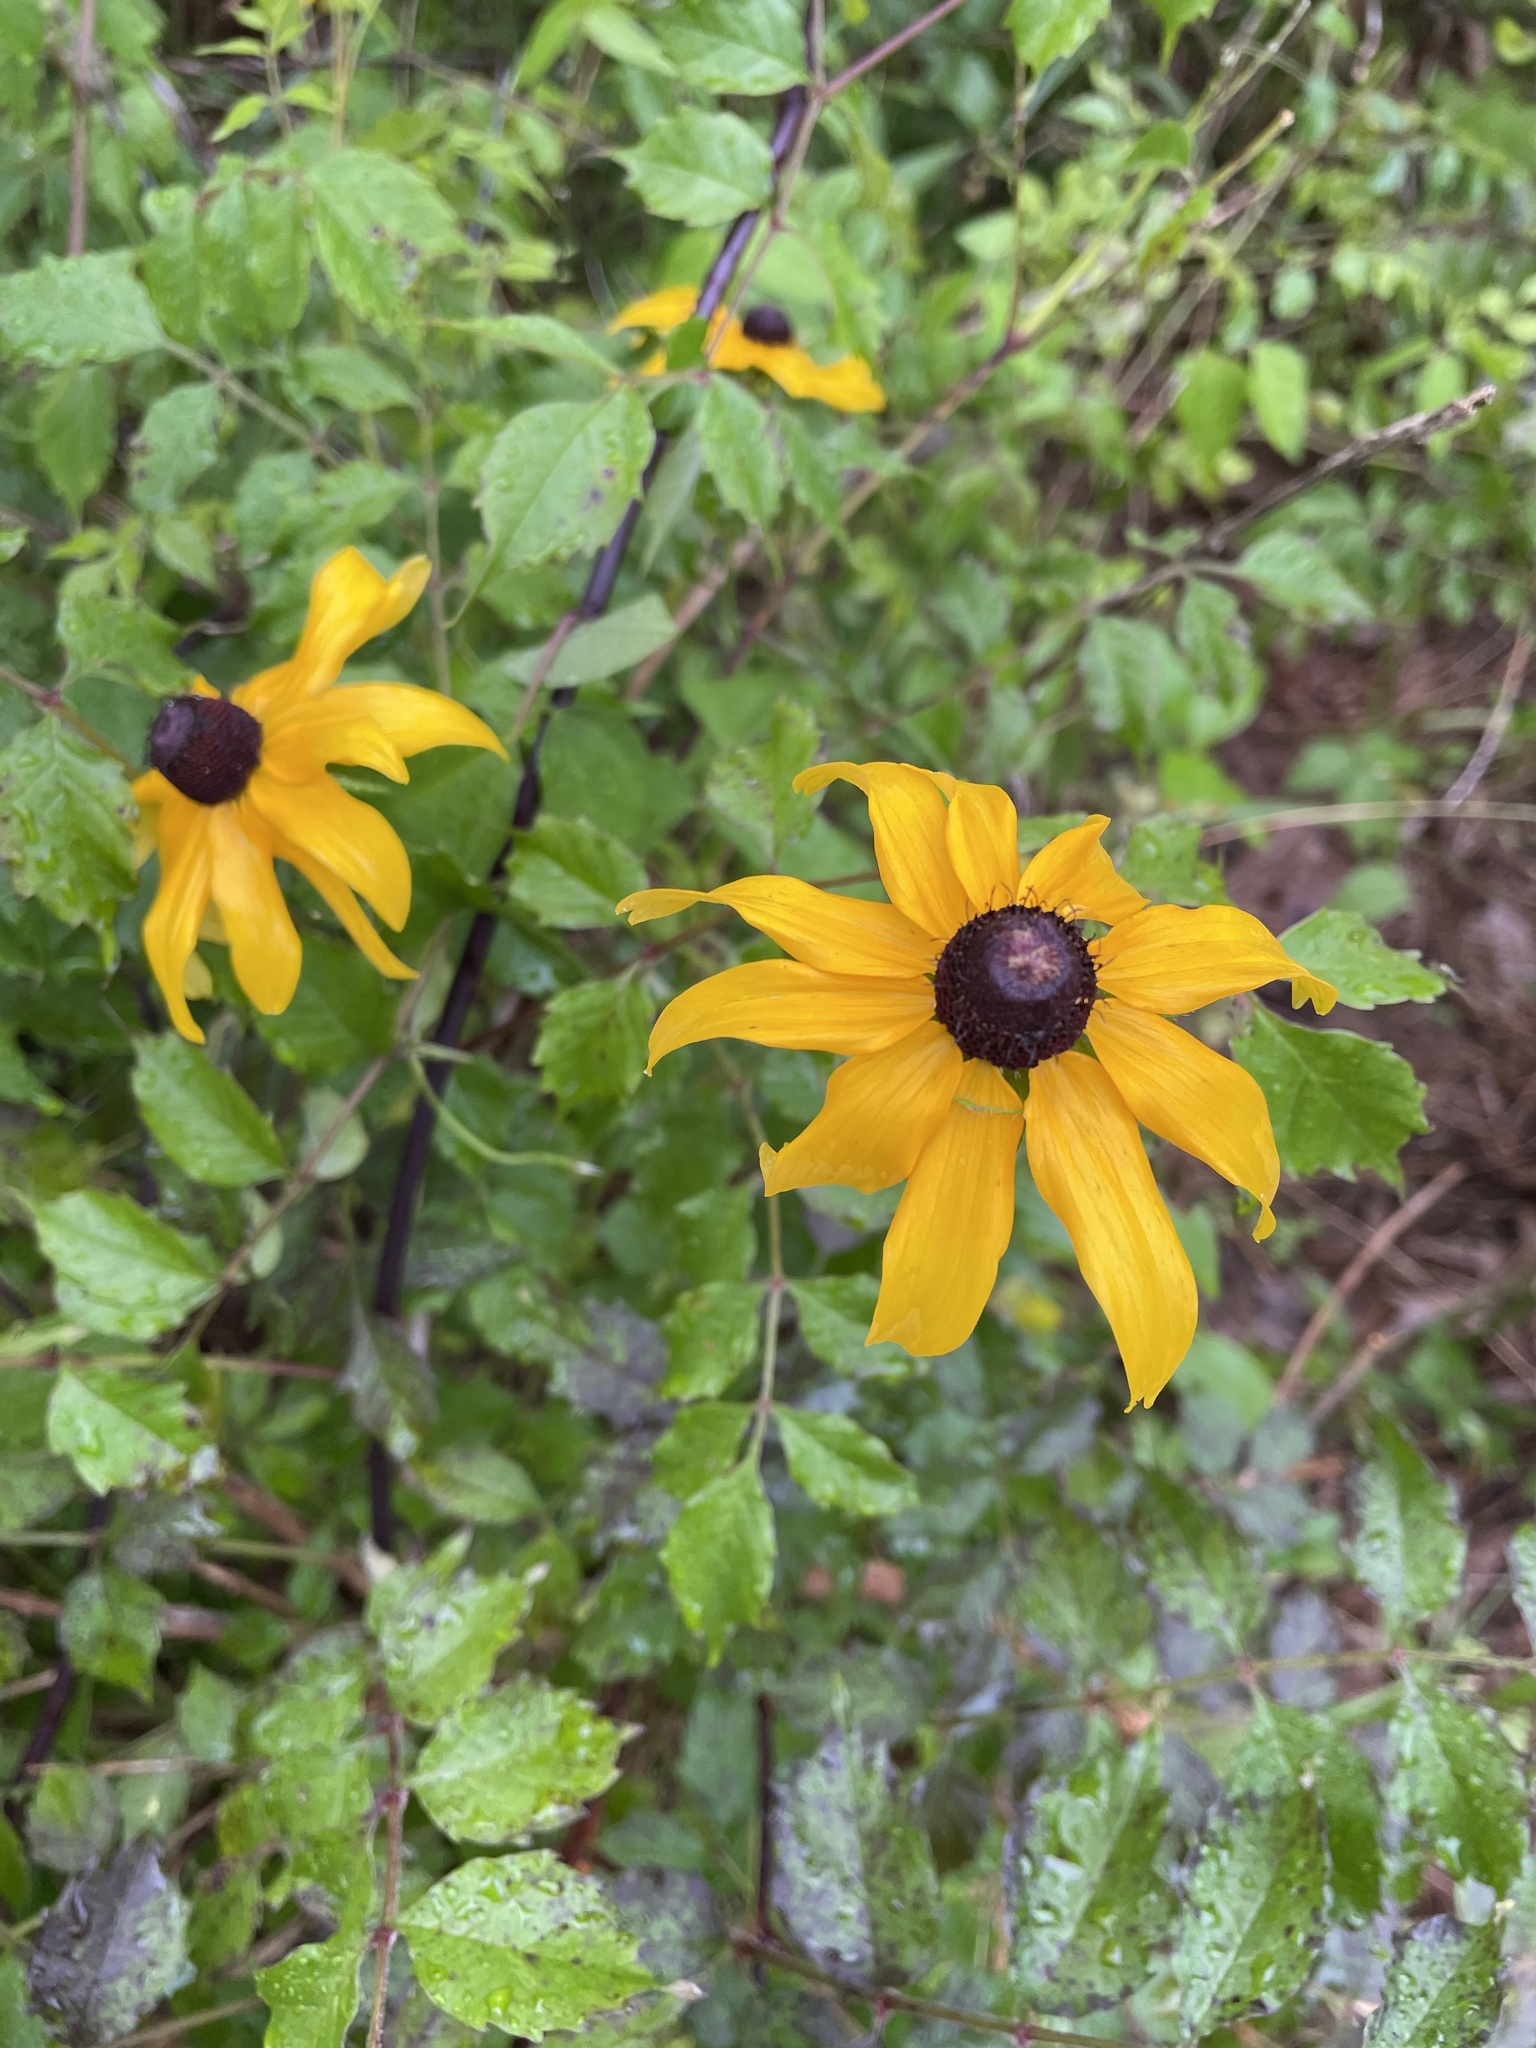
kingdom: Plantae
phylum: Tracheophyta
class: Magnoliopsida
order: Asterales
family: Asteraceae
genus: Rudbeckia
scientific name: Rudbeckia hirta
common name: Black-eyed-susan
